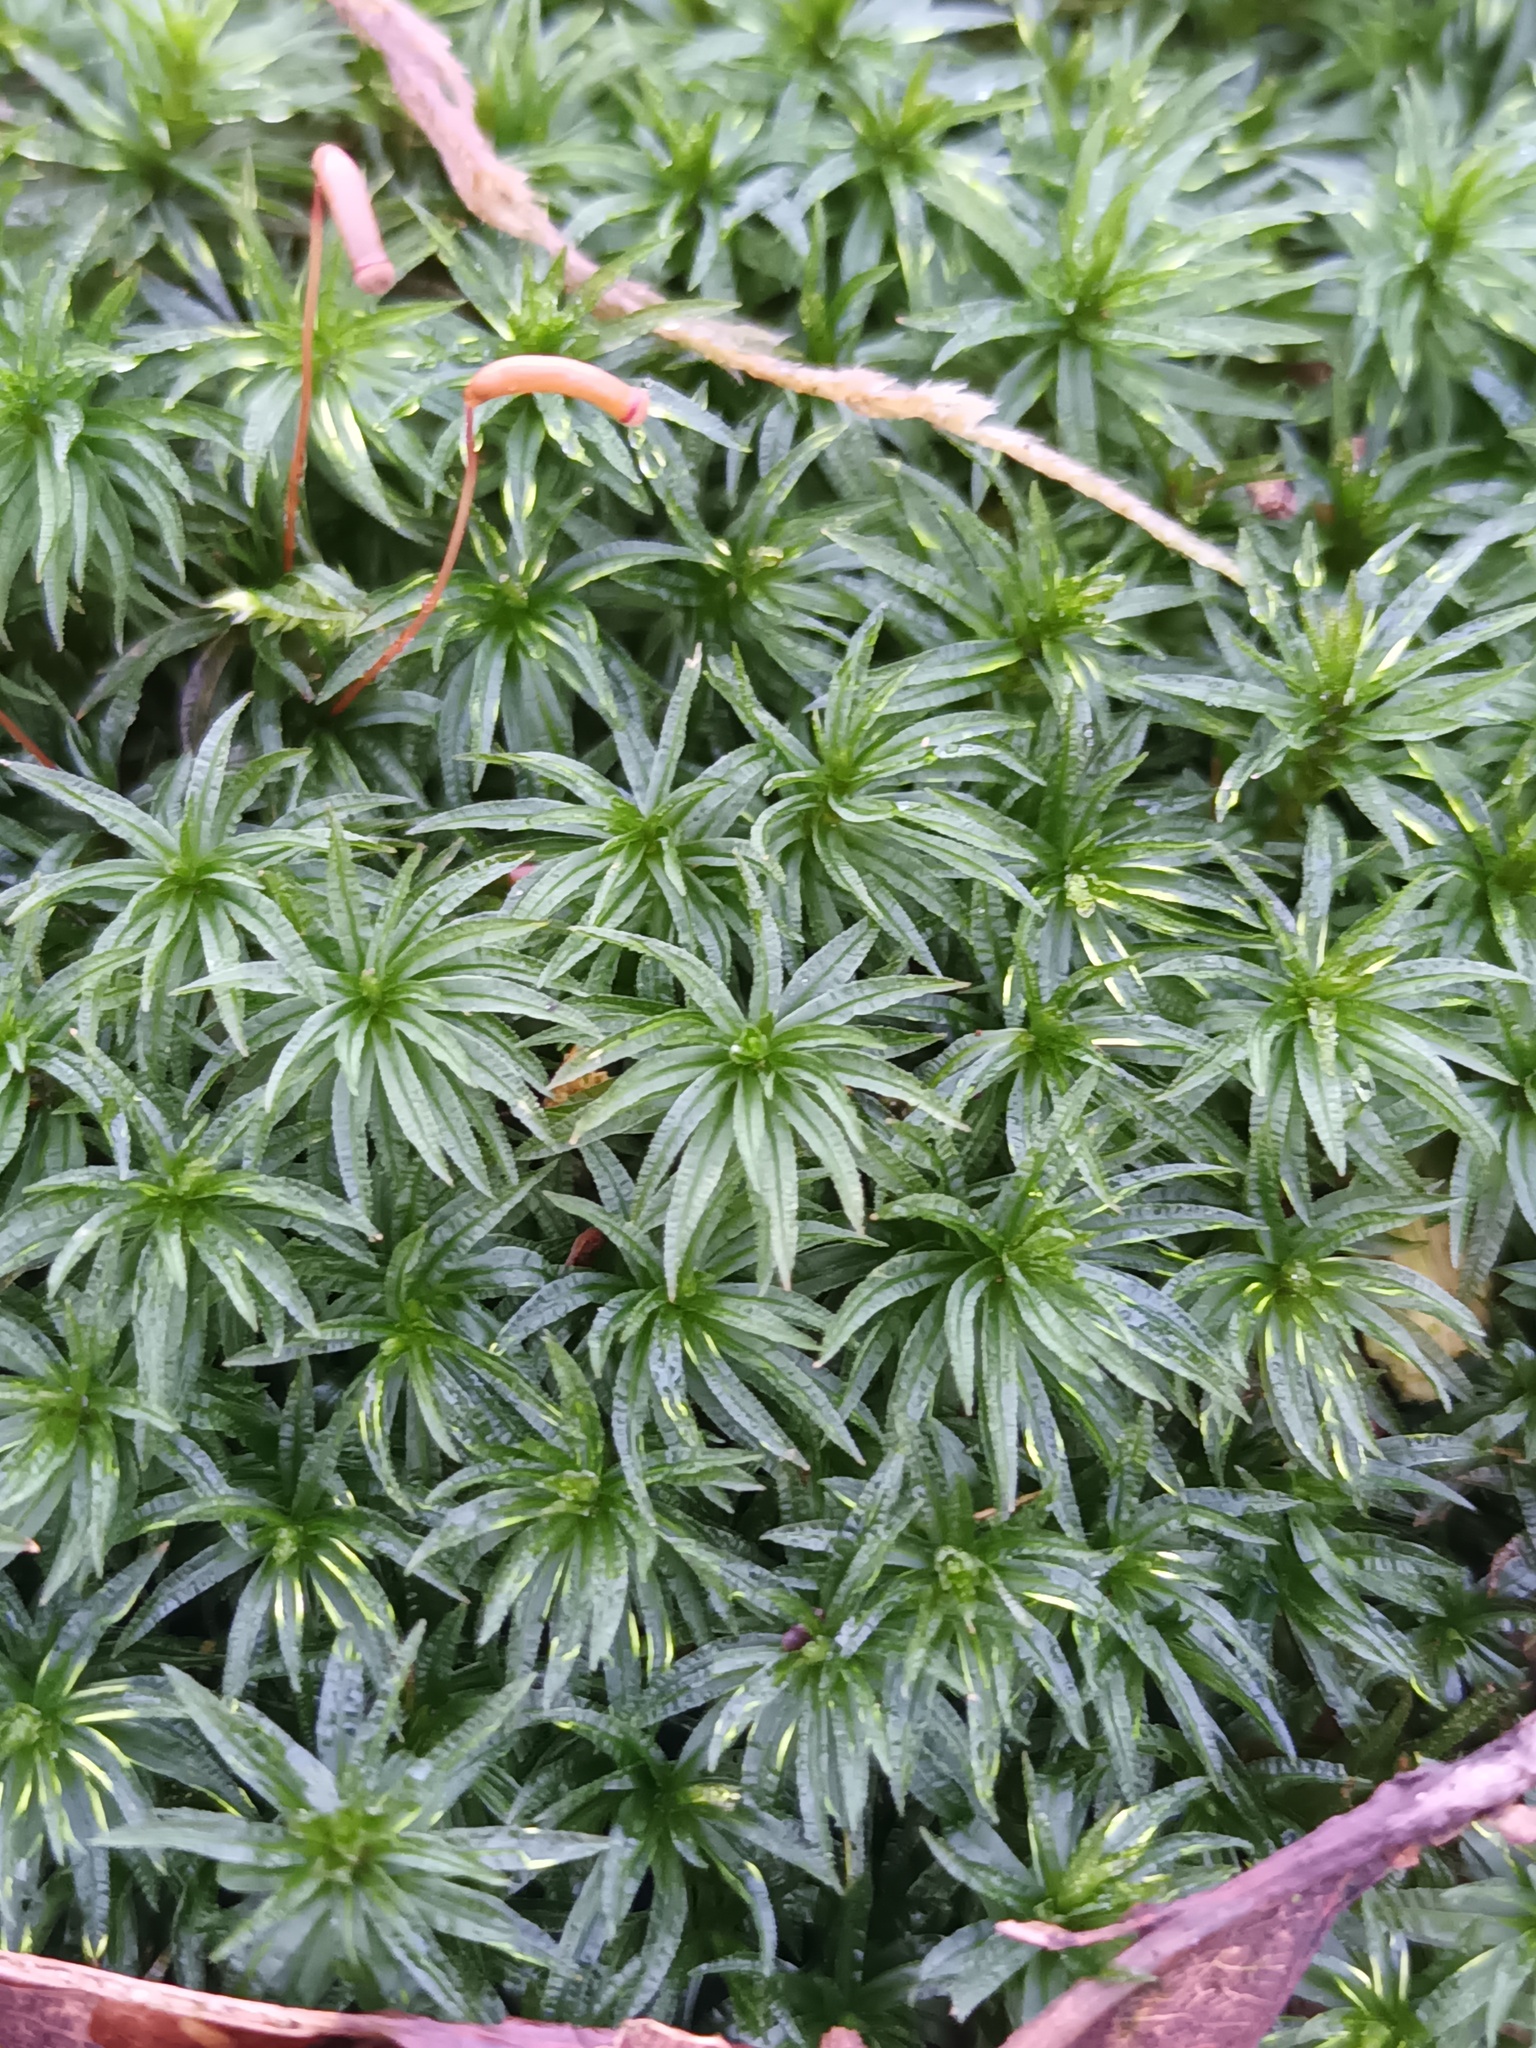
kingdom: Plantae
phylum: Bryophyta
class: Polytrichopsida
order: Polytrichales
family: Polytrichaceae
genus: Atrichum
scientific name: Atrichum undulatum
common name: Common smoothcap
